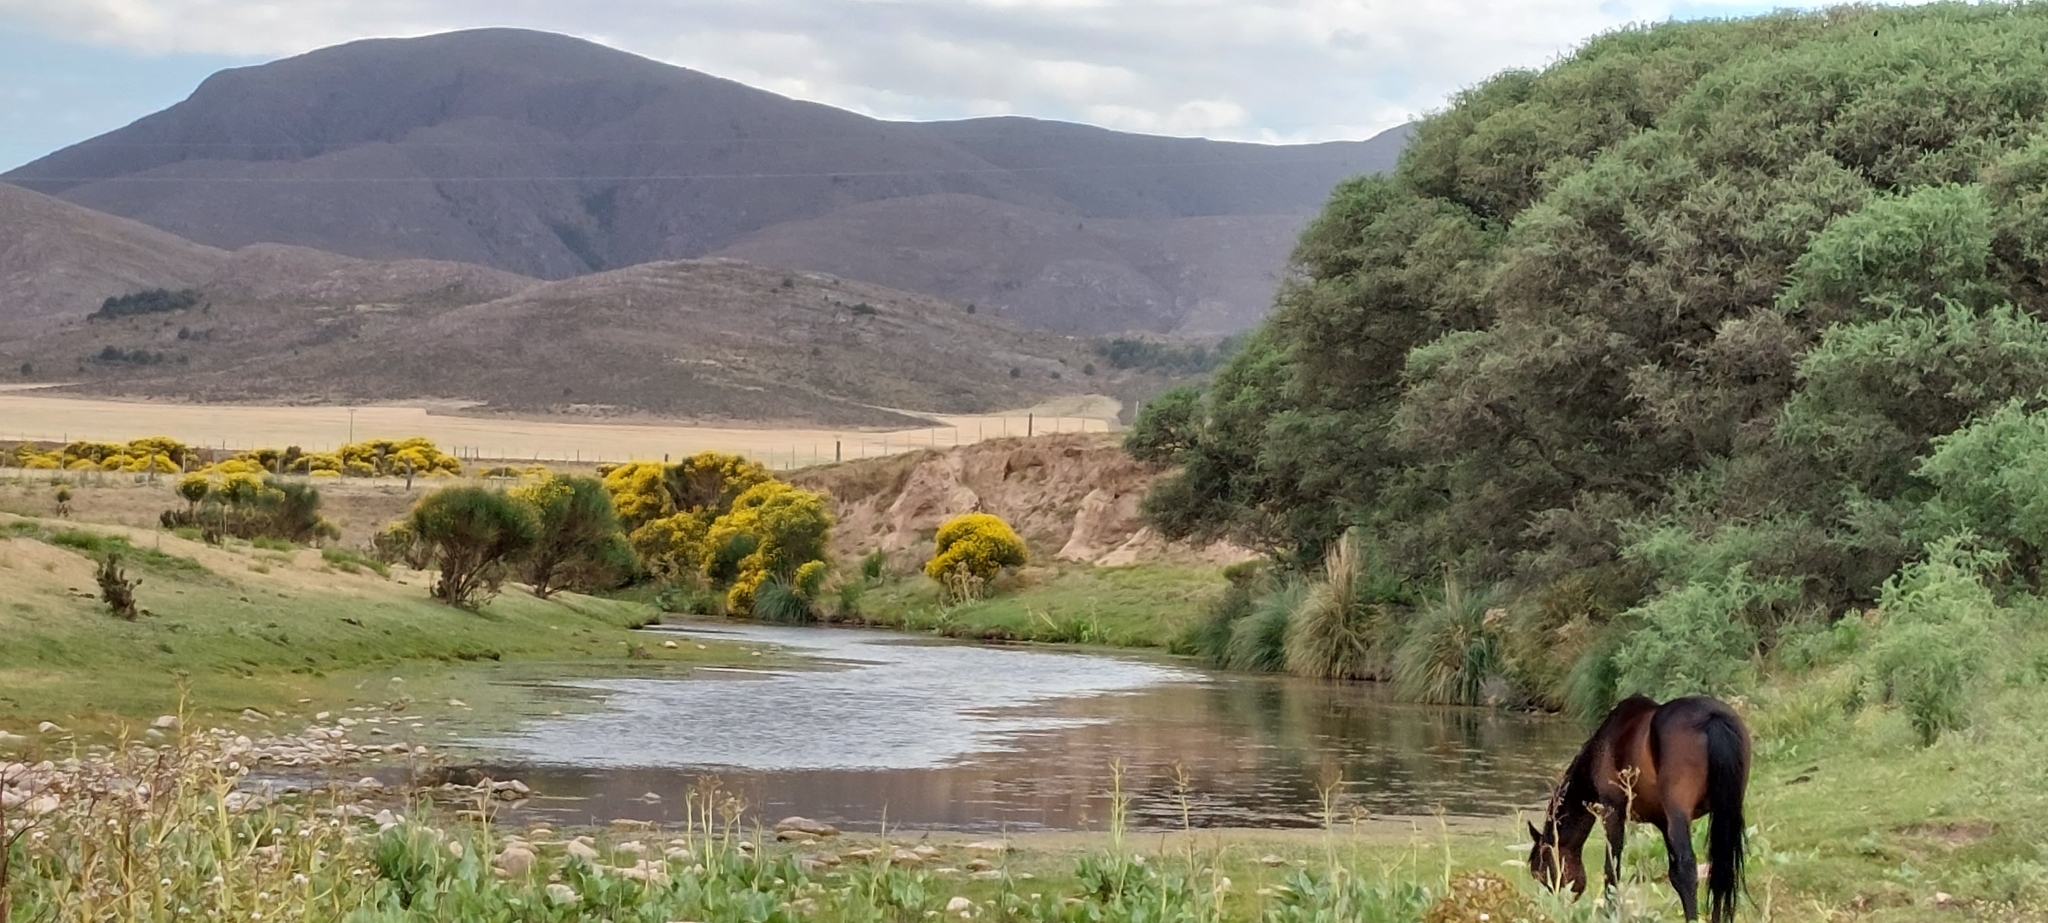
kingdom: Plantae
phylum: Tracheophyta
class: Magnoliopsida
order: Fabales
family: Fabaceae
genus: Spartium
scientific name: Spartium junceum
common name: Spanish broom
